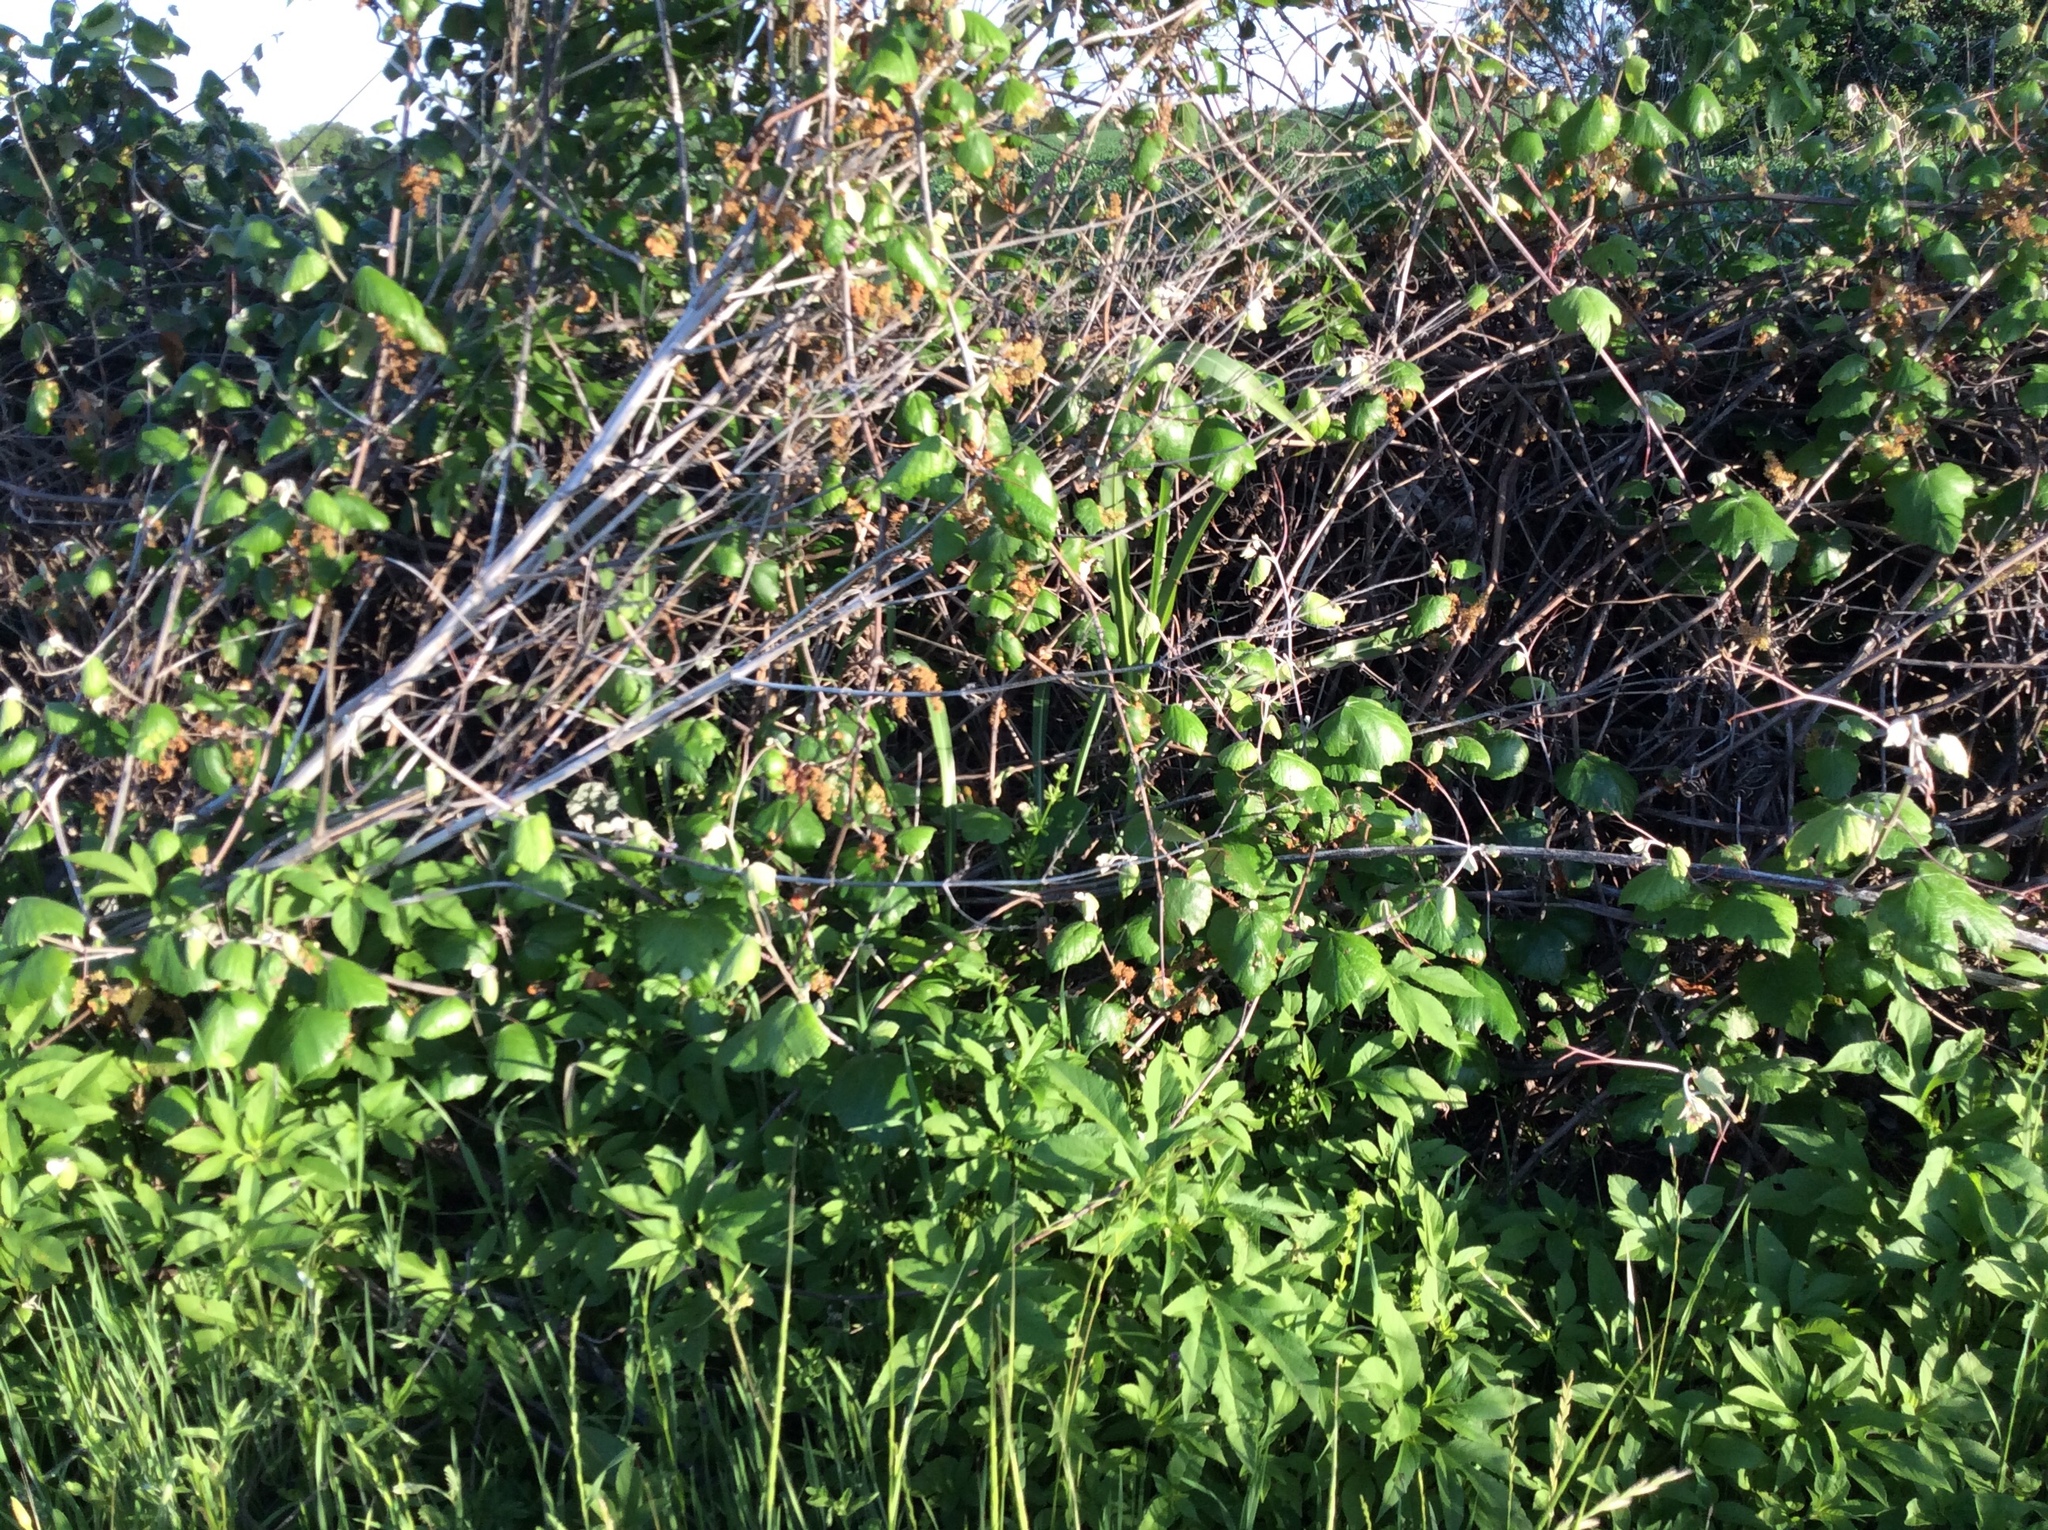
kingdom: Plantae
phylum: Tracheophyta
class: Magnoliopsida
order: Vitales
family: Vitaceae
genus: Vitis
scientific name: Vitis mustangensis
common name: Mustang grape
